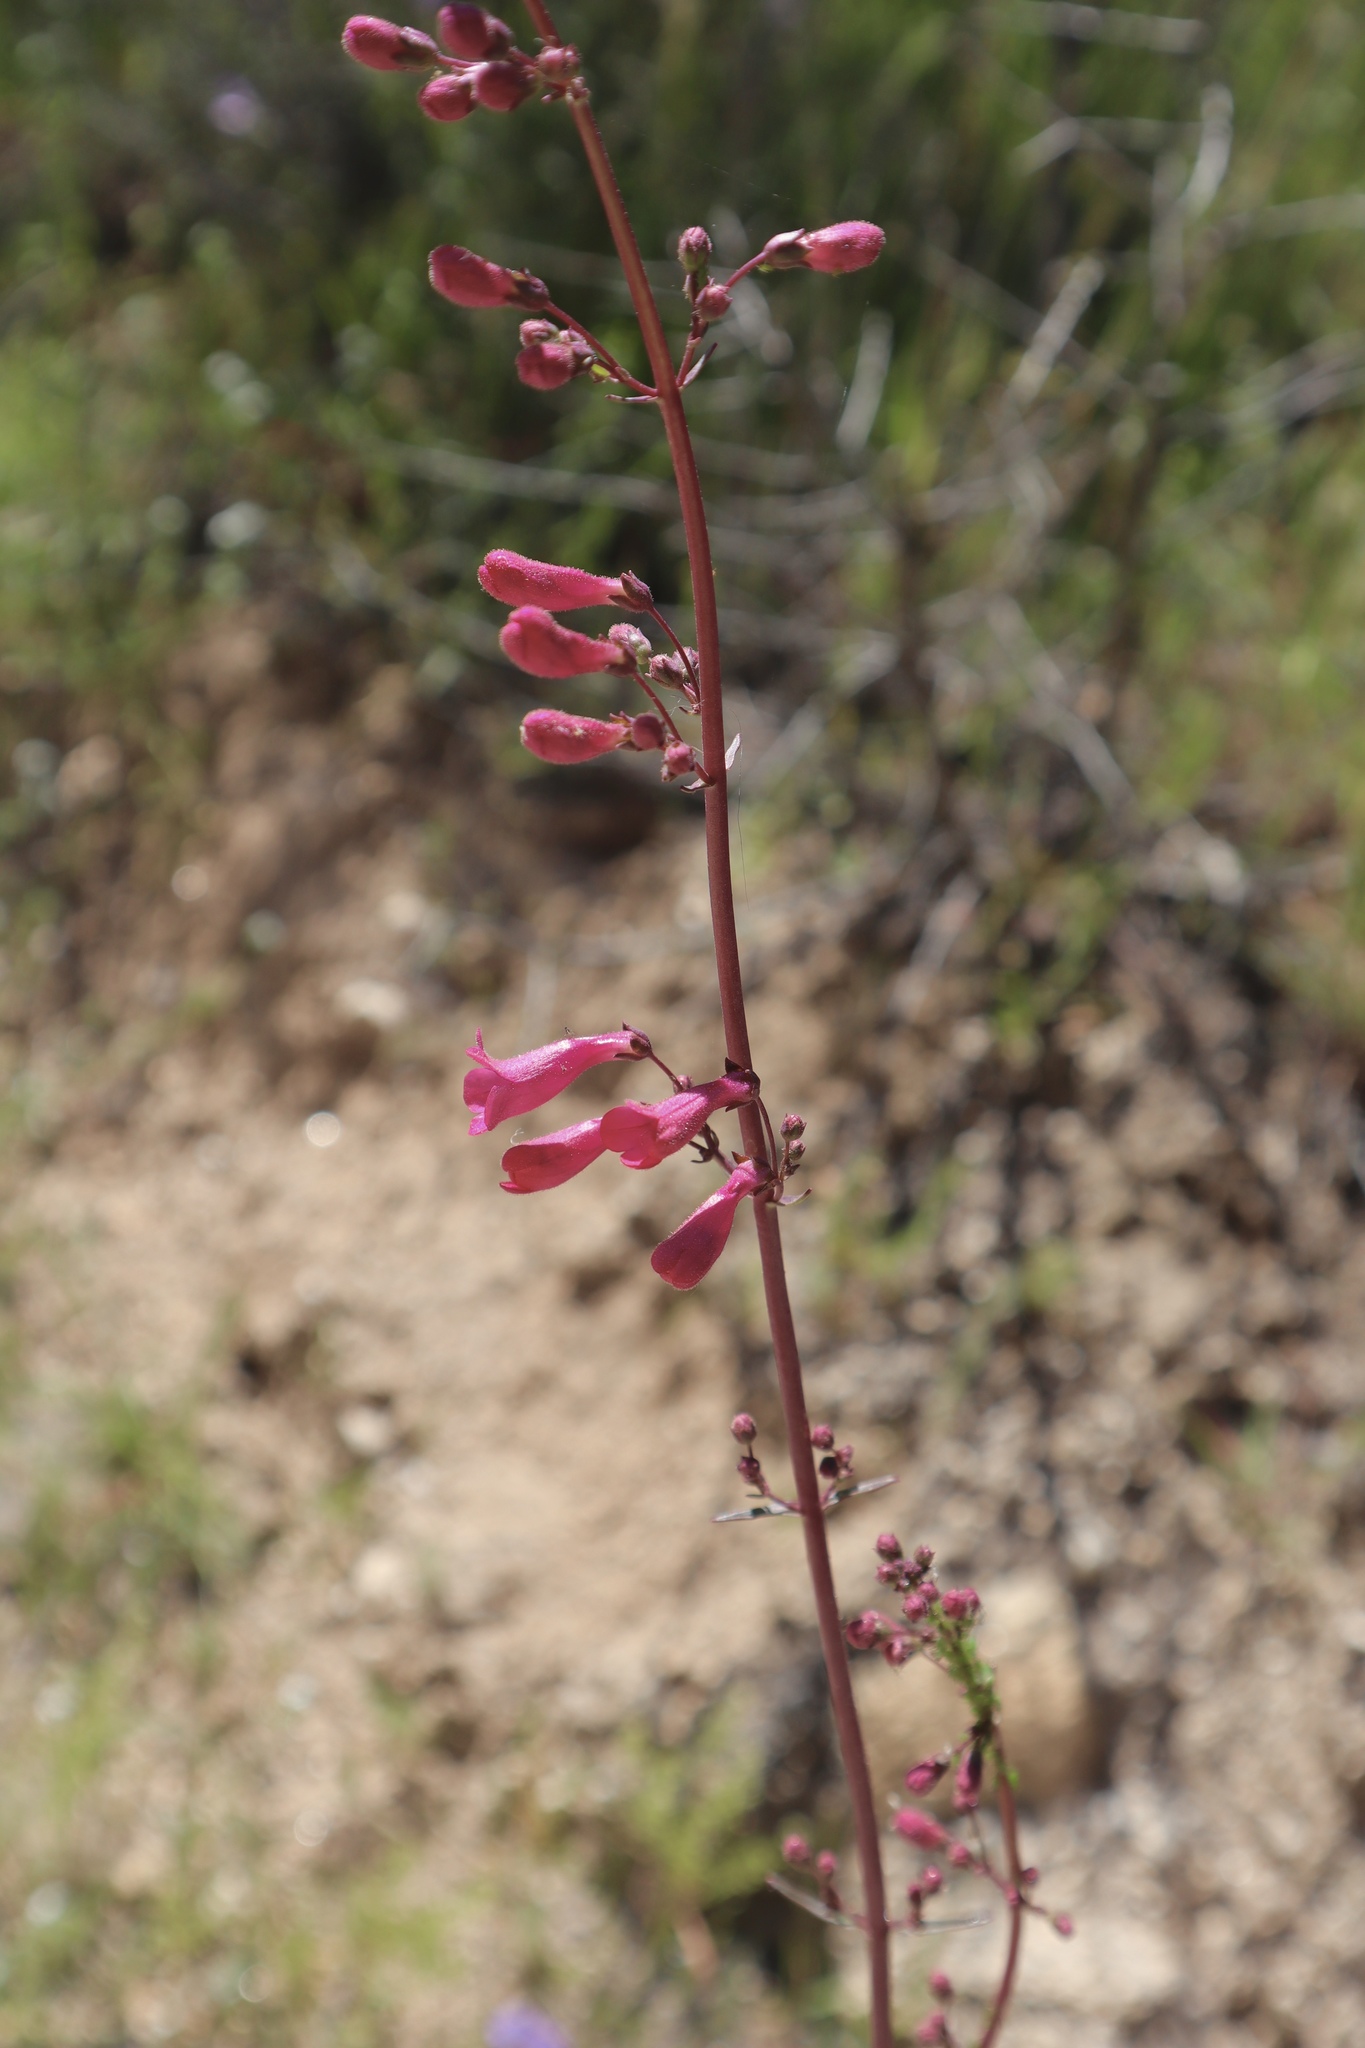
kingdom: Plantae
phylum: Tracheophyta
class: Magnoliopsida
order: Lamiales
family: Plantaginaceae
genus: Penstemon
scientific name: Penstemon parryi
